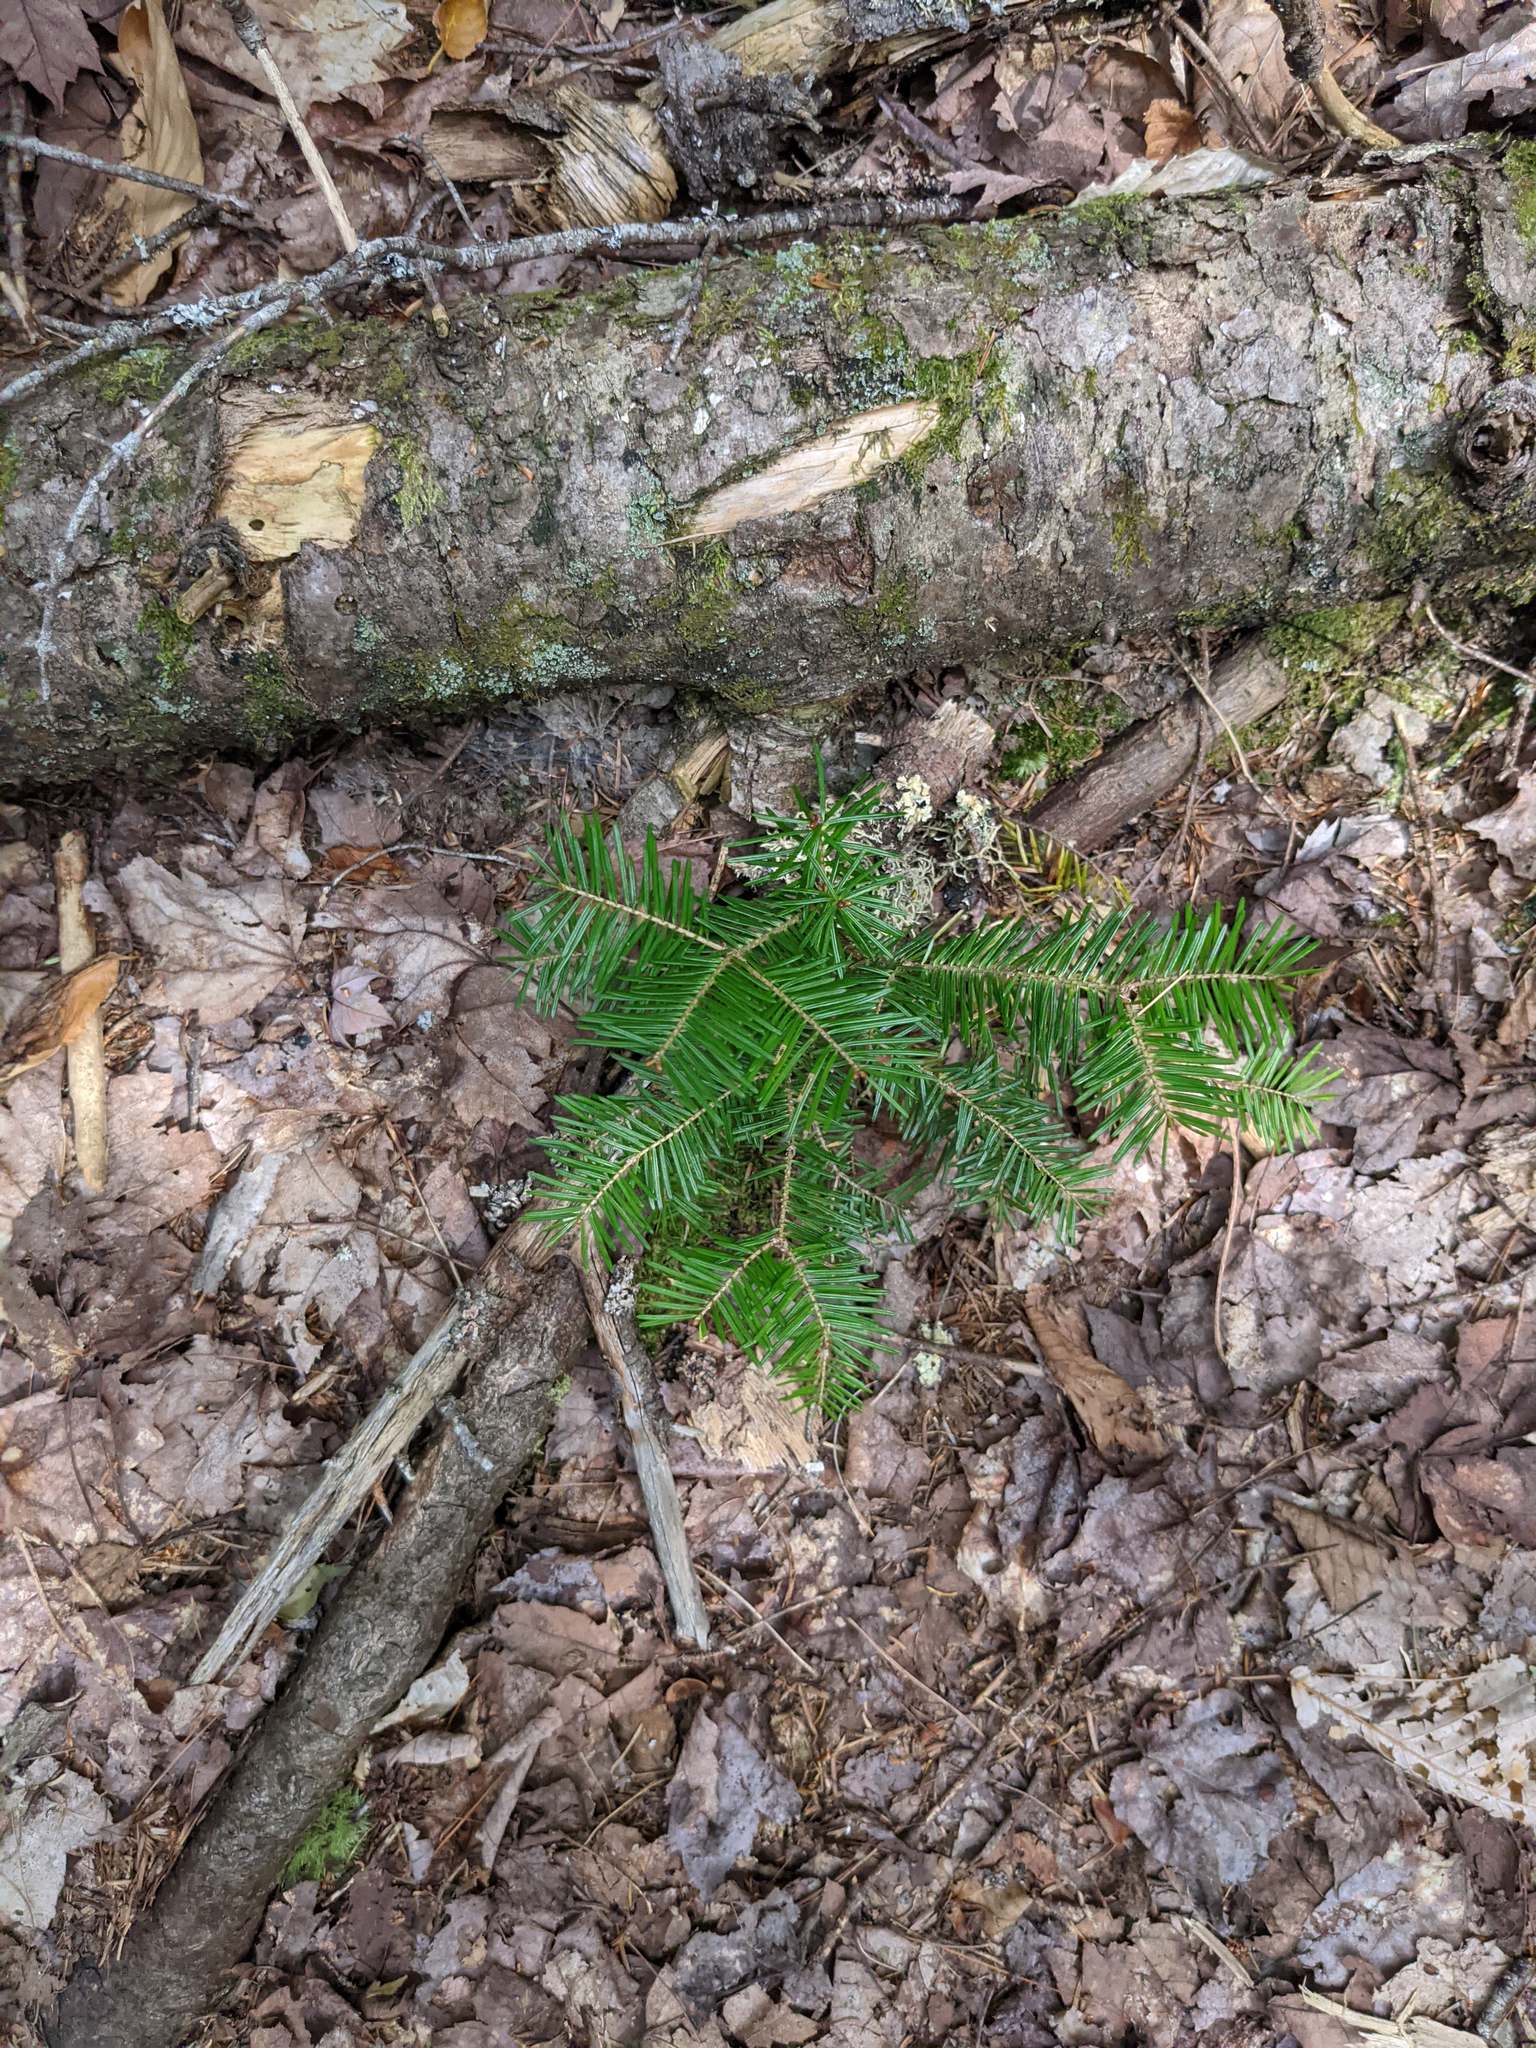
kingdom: Plantae
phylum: Tracheophyta
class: Pinopsida
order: Pinales
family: Pinaceae
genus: Abies
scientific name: Abies balsamea
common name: Balsam fir
